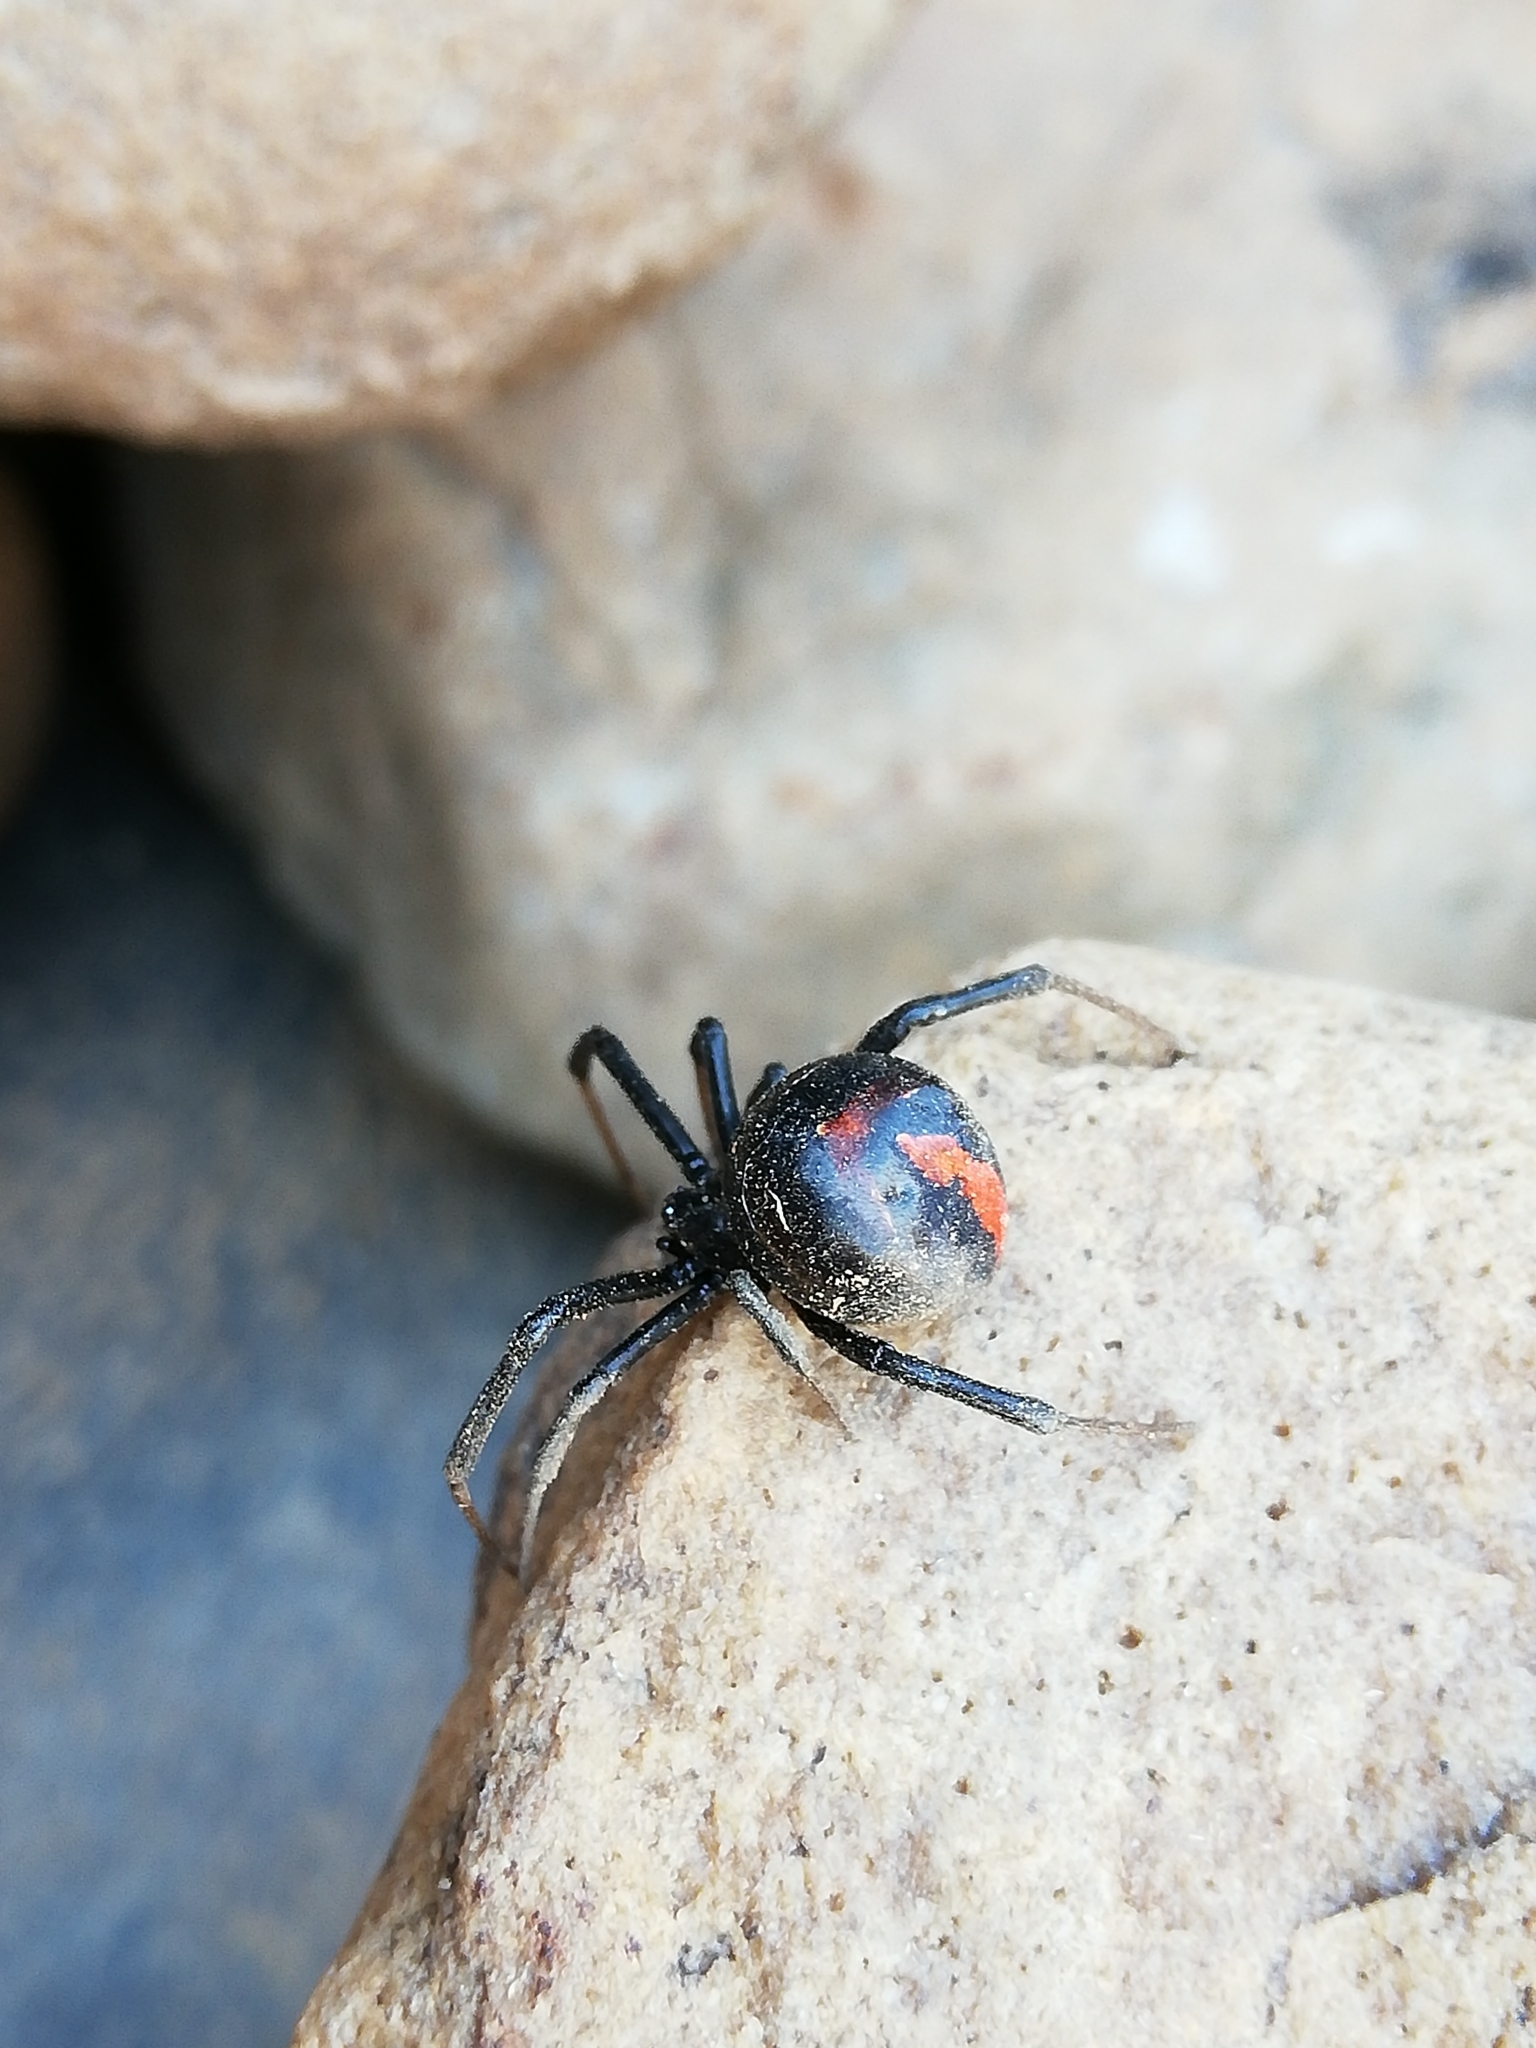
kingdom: Animalia
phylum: Arthropoda
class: Arachnida
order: Araneae
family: Theridiidae
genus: Latrodectus
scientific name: Latrodectus indistinctus
